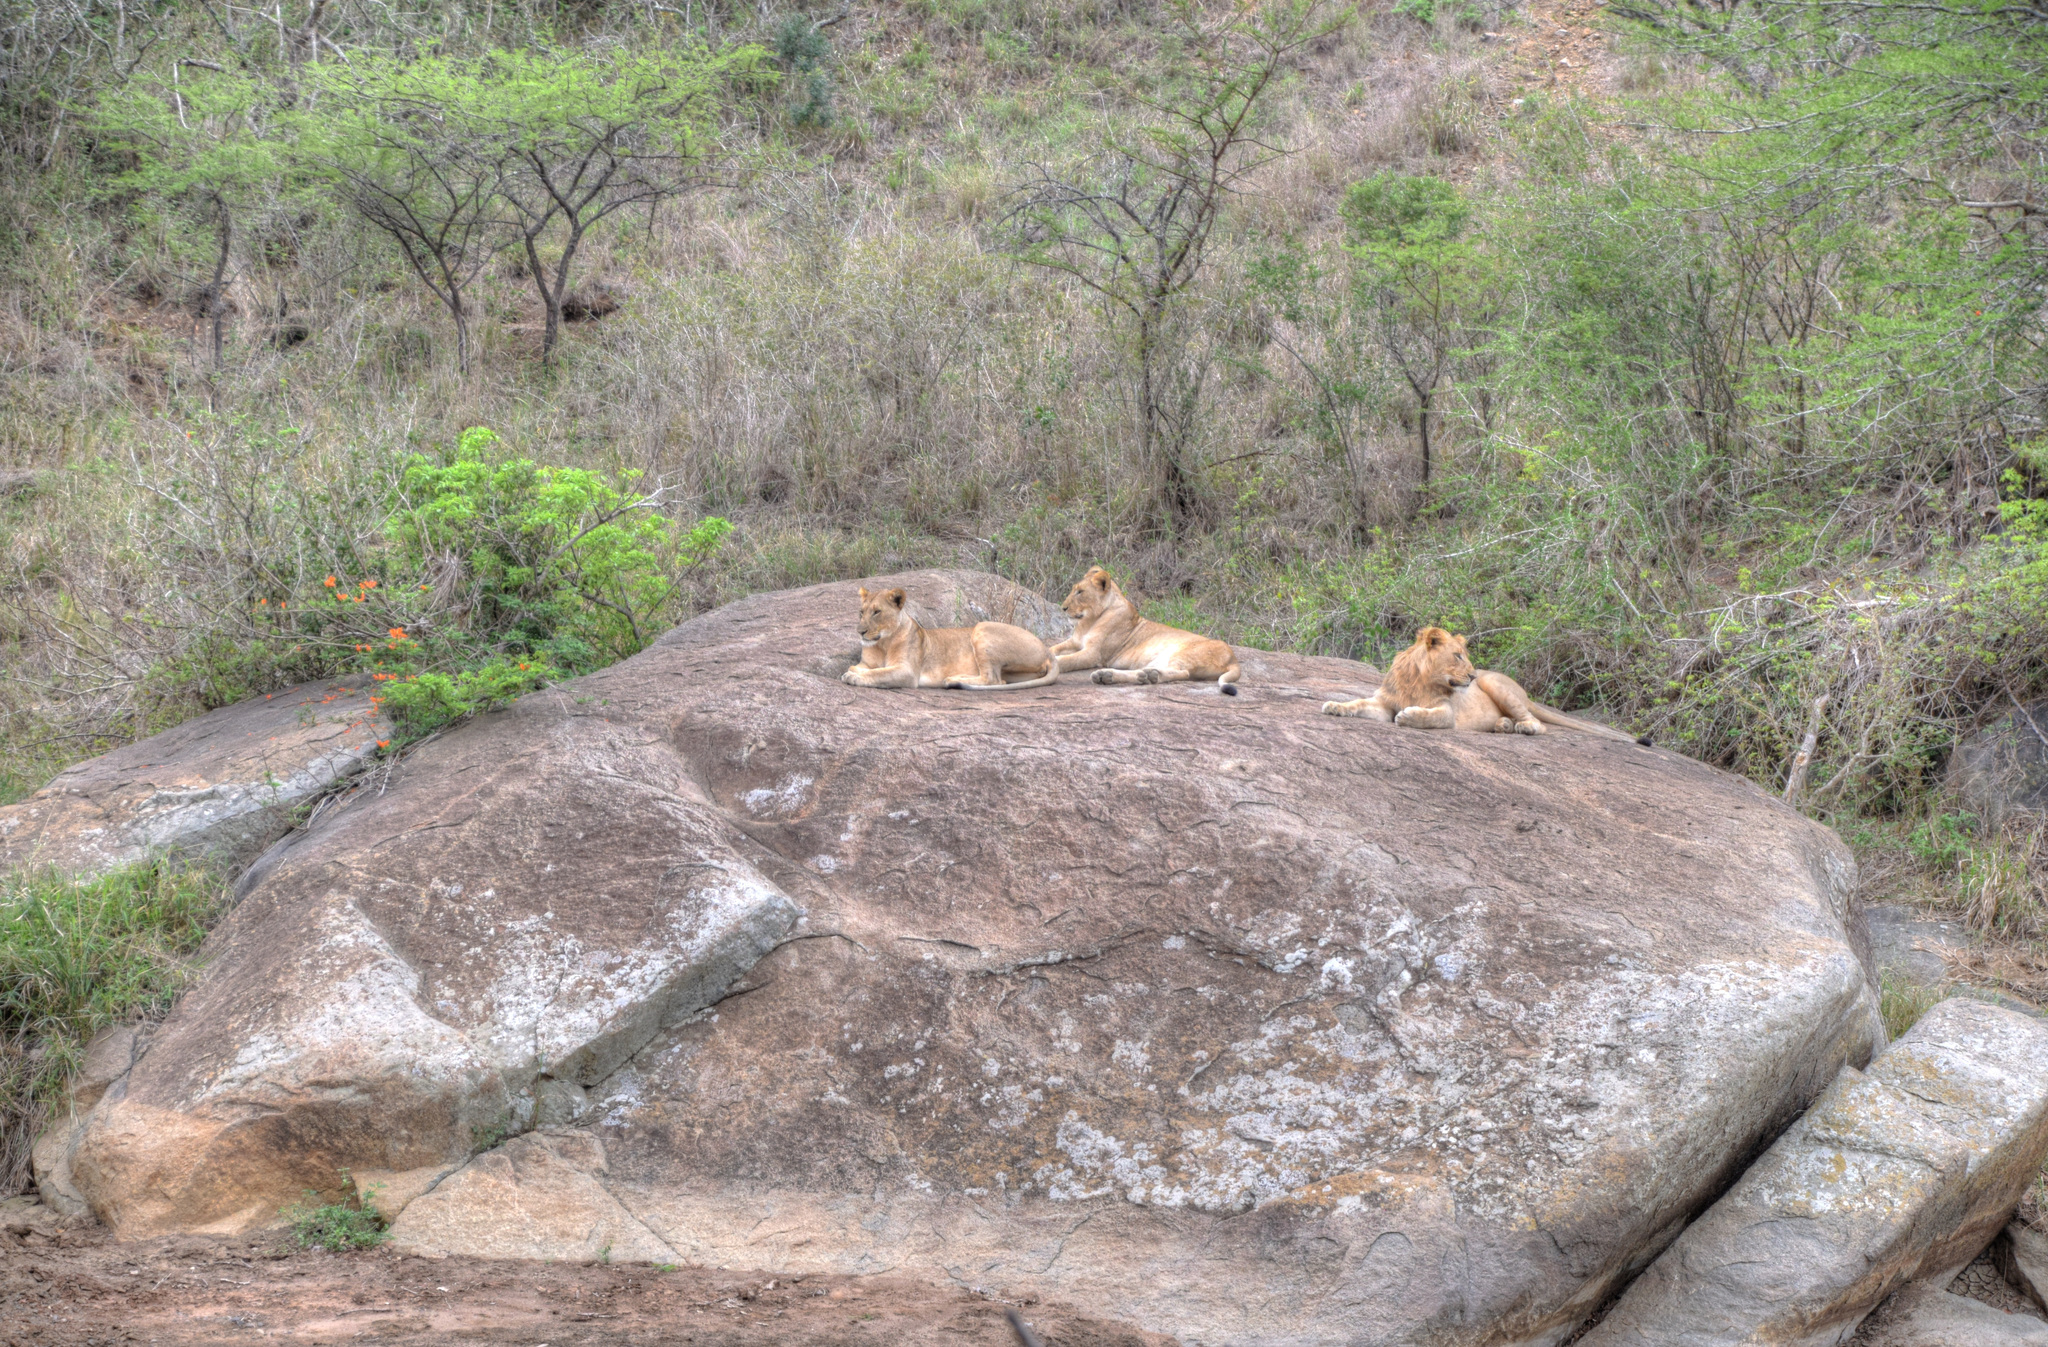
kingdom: Animalia
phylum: Chordata
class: Mammalia
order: Carnivora
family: Felidae
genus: Panthera
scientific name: Panthera leo
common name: Lion
